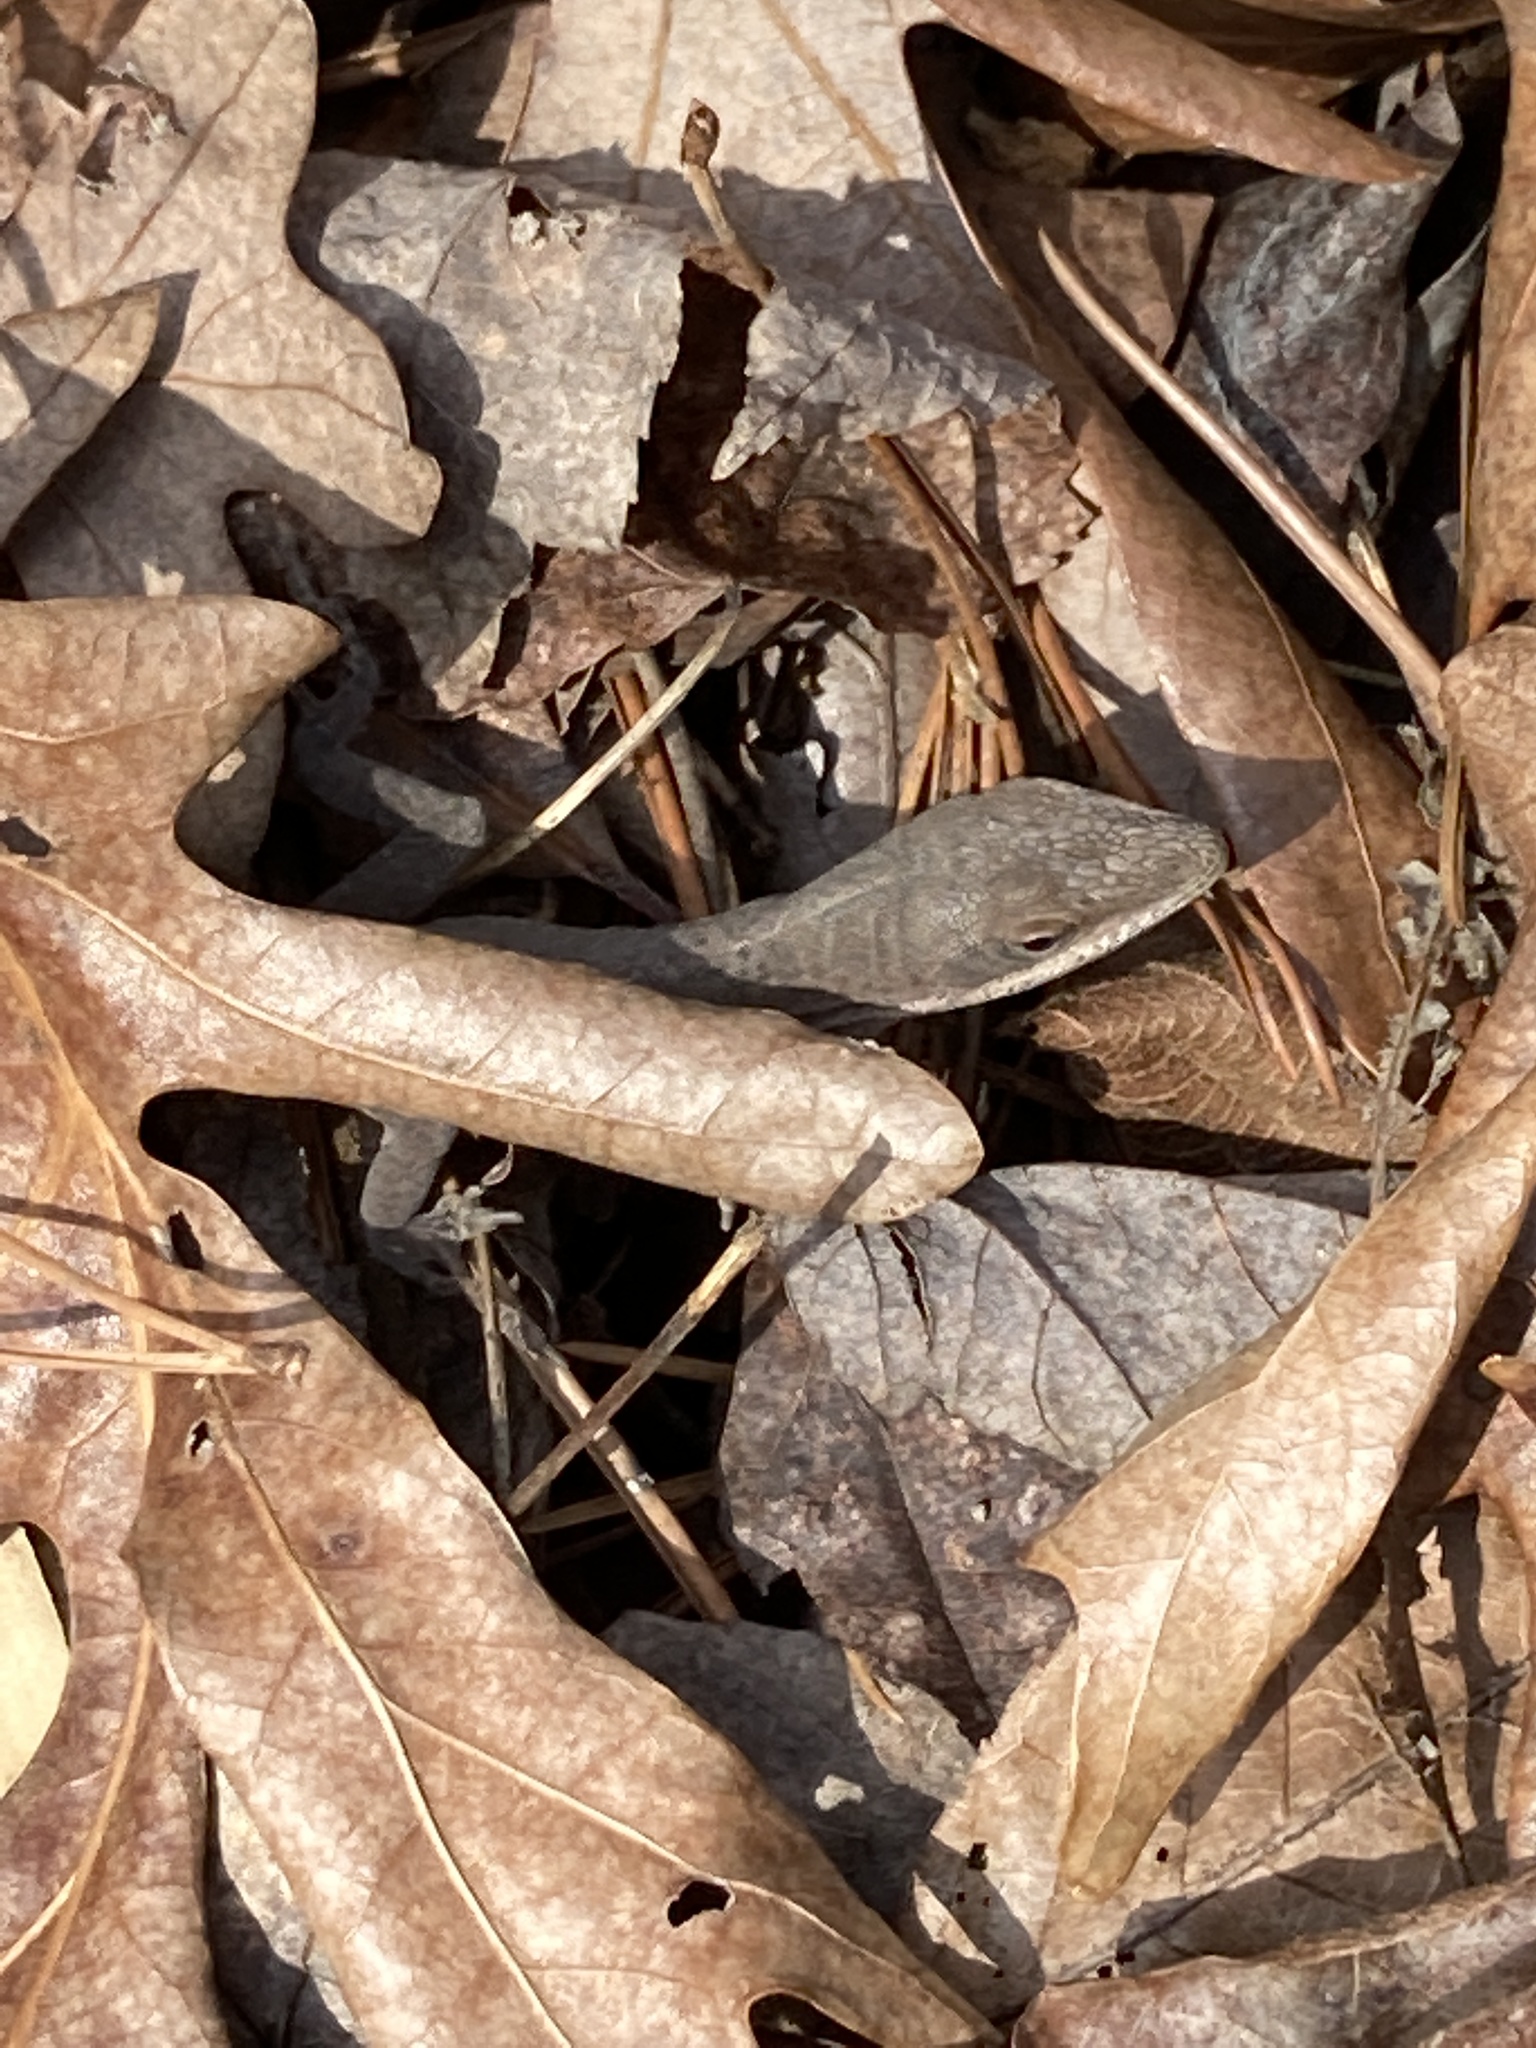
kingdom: Animalia
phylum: Chordata
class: Squamata
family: Dactyloidae
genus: Anolis
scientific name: Anolis carolinensis
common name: Green anole
